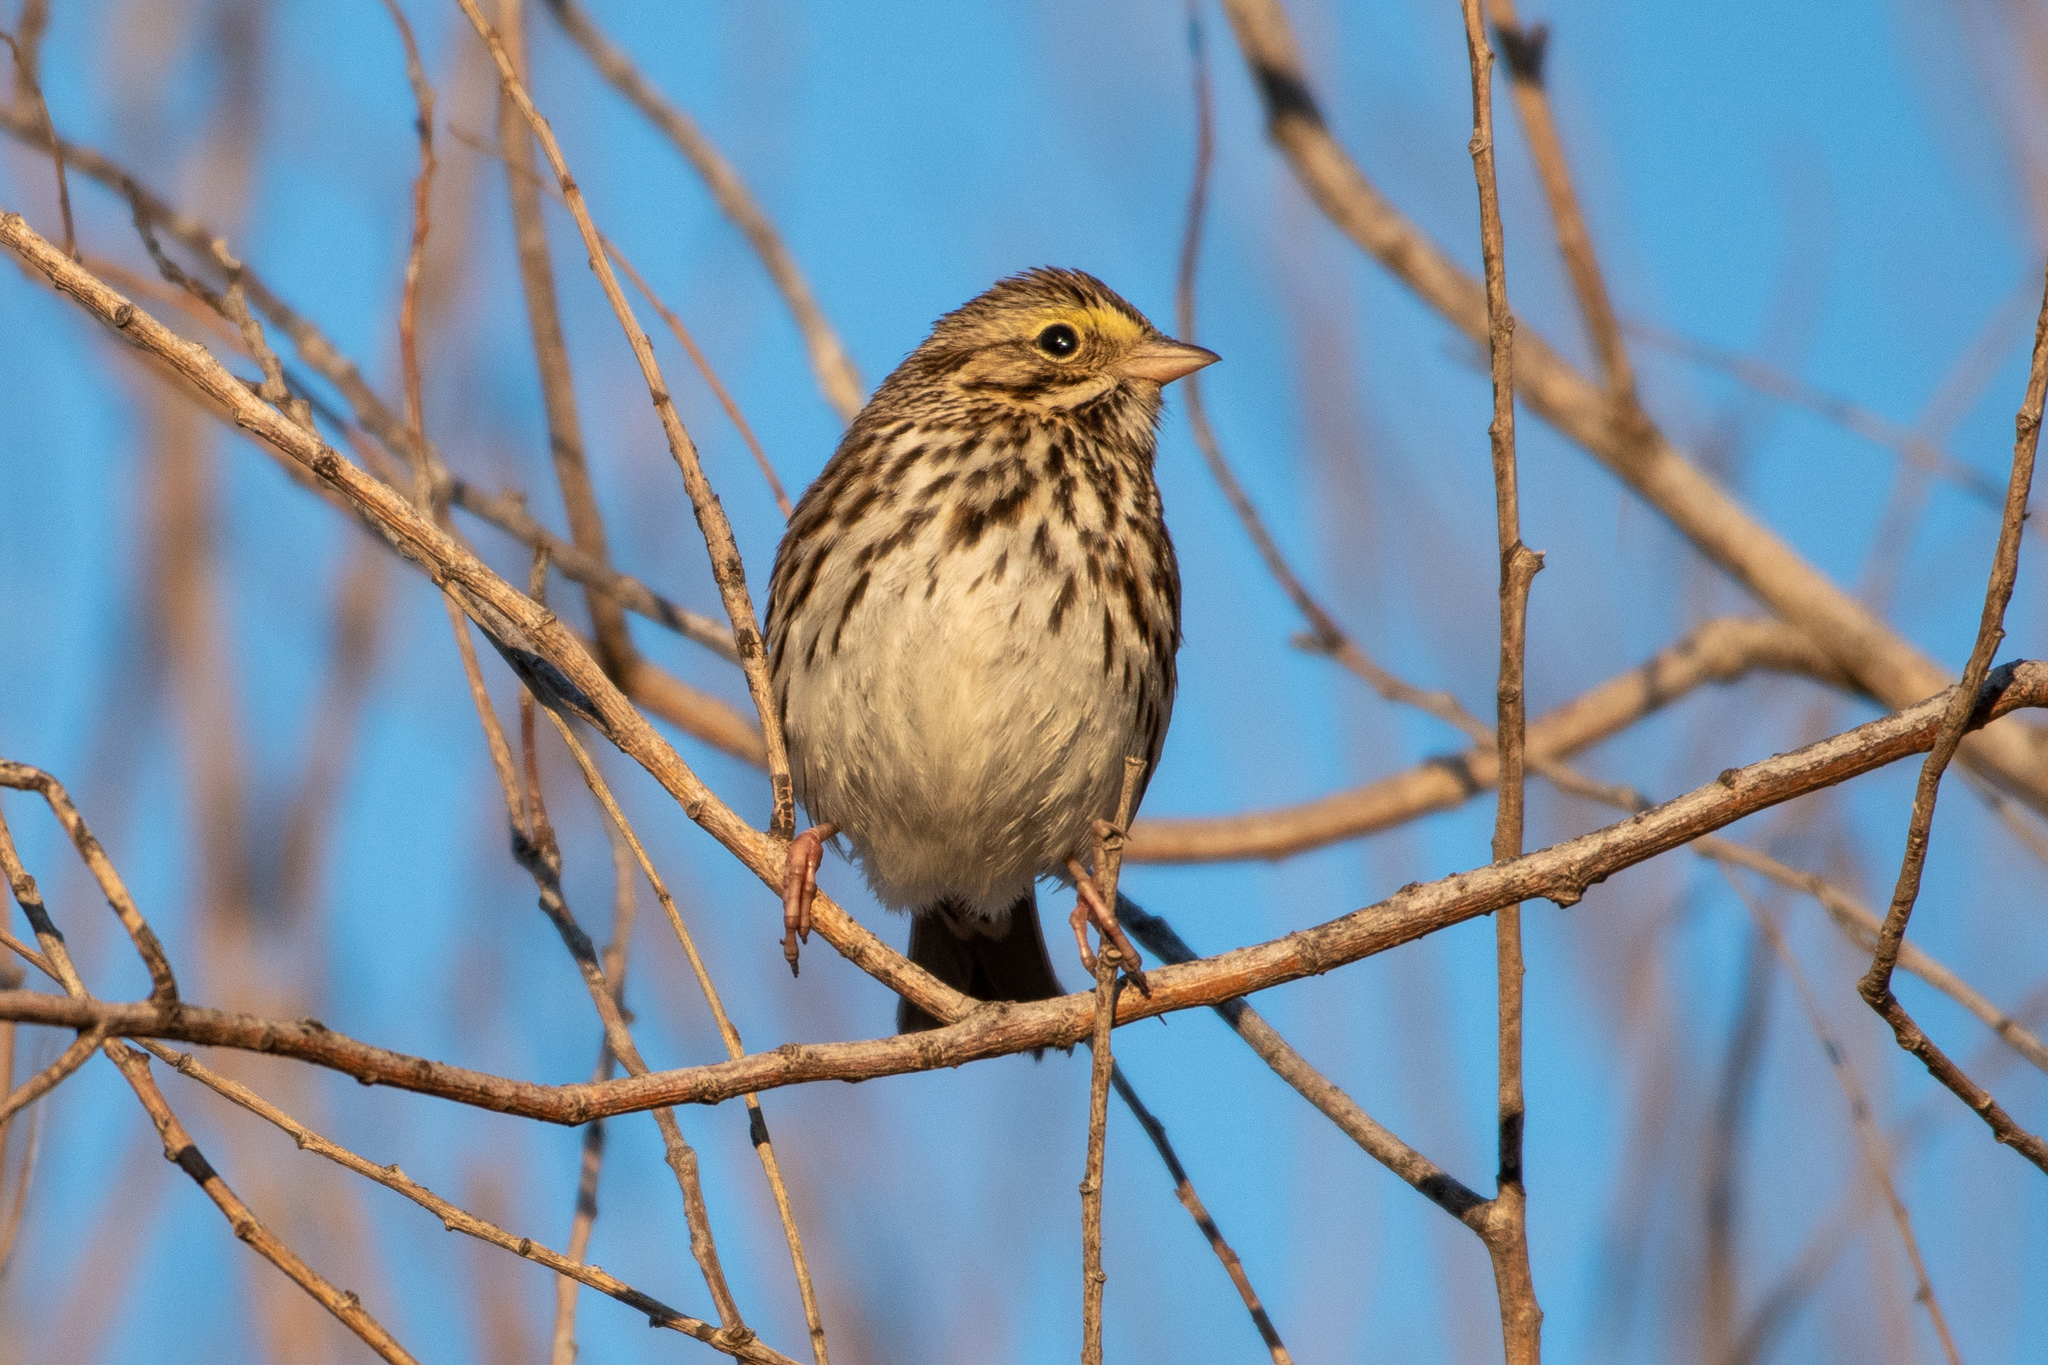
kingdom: Animalia
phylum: Chordata
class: Aves
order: Passeriformes
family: Passerellidae
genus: Passerculus
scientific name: Passerculus sandwichensis
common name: Savannah sparrow
